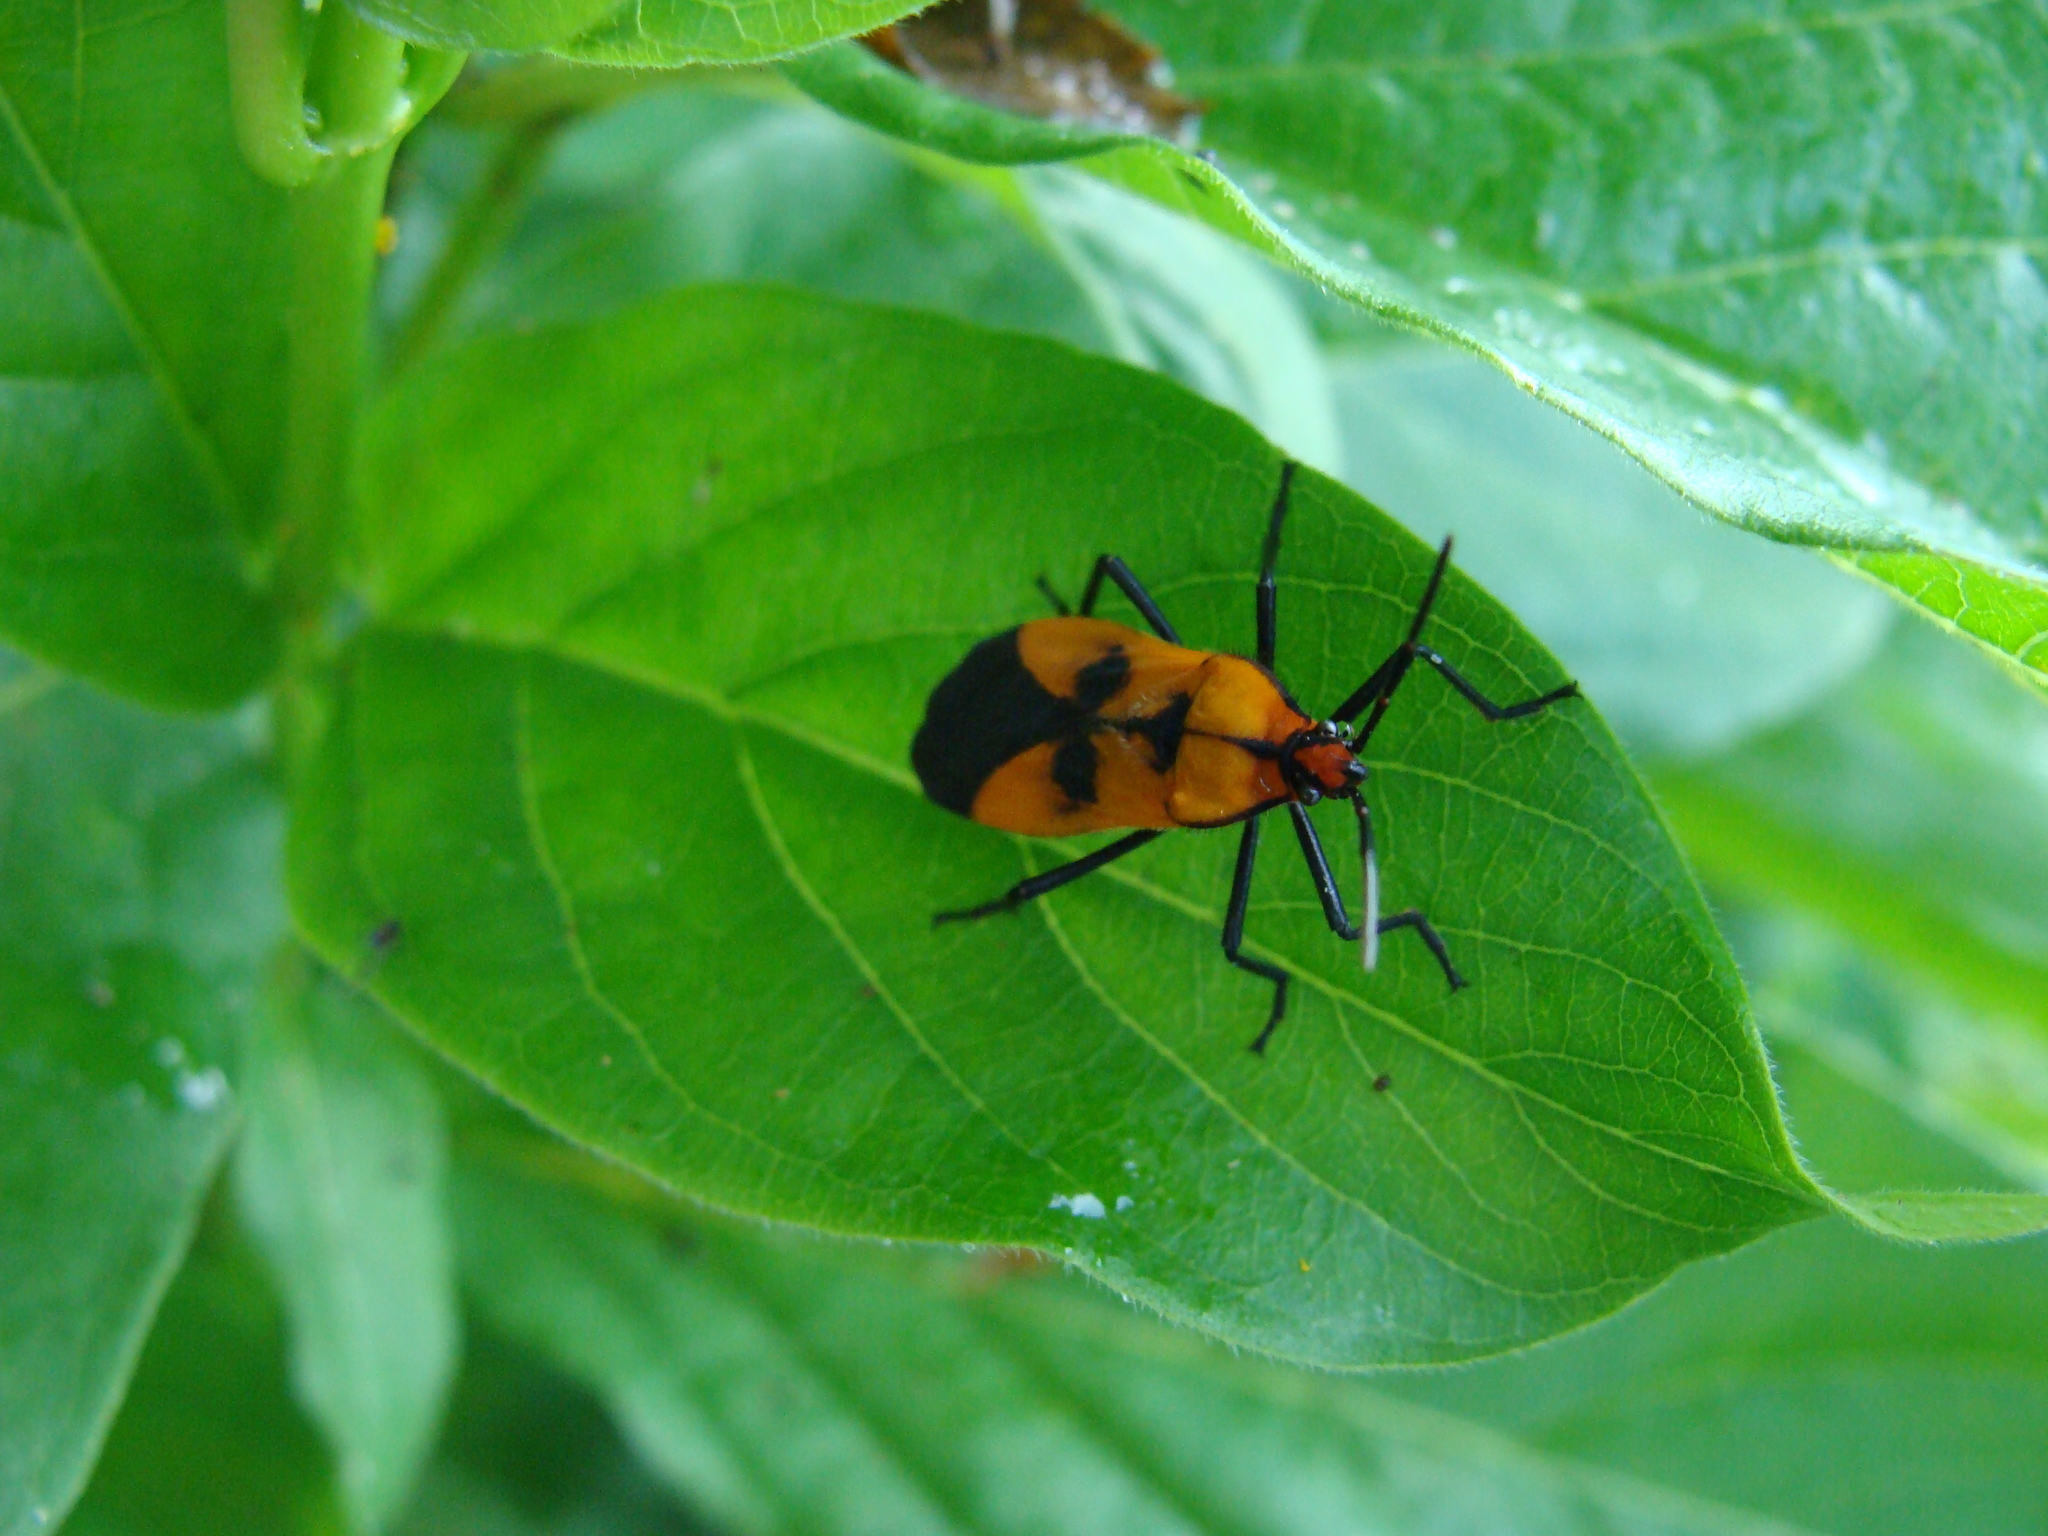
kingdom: Animalia
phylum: Arthropoda
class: Insecta
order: Hemiptera
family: Lygaeidae
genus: Oncopeltus
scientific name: Oncopeltus varicolor
